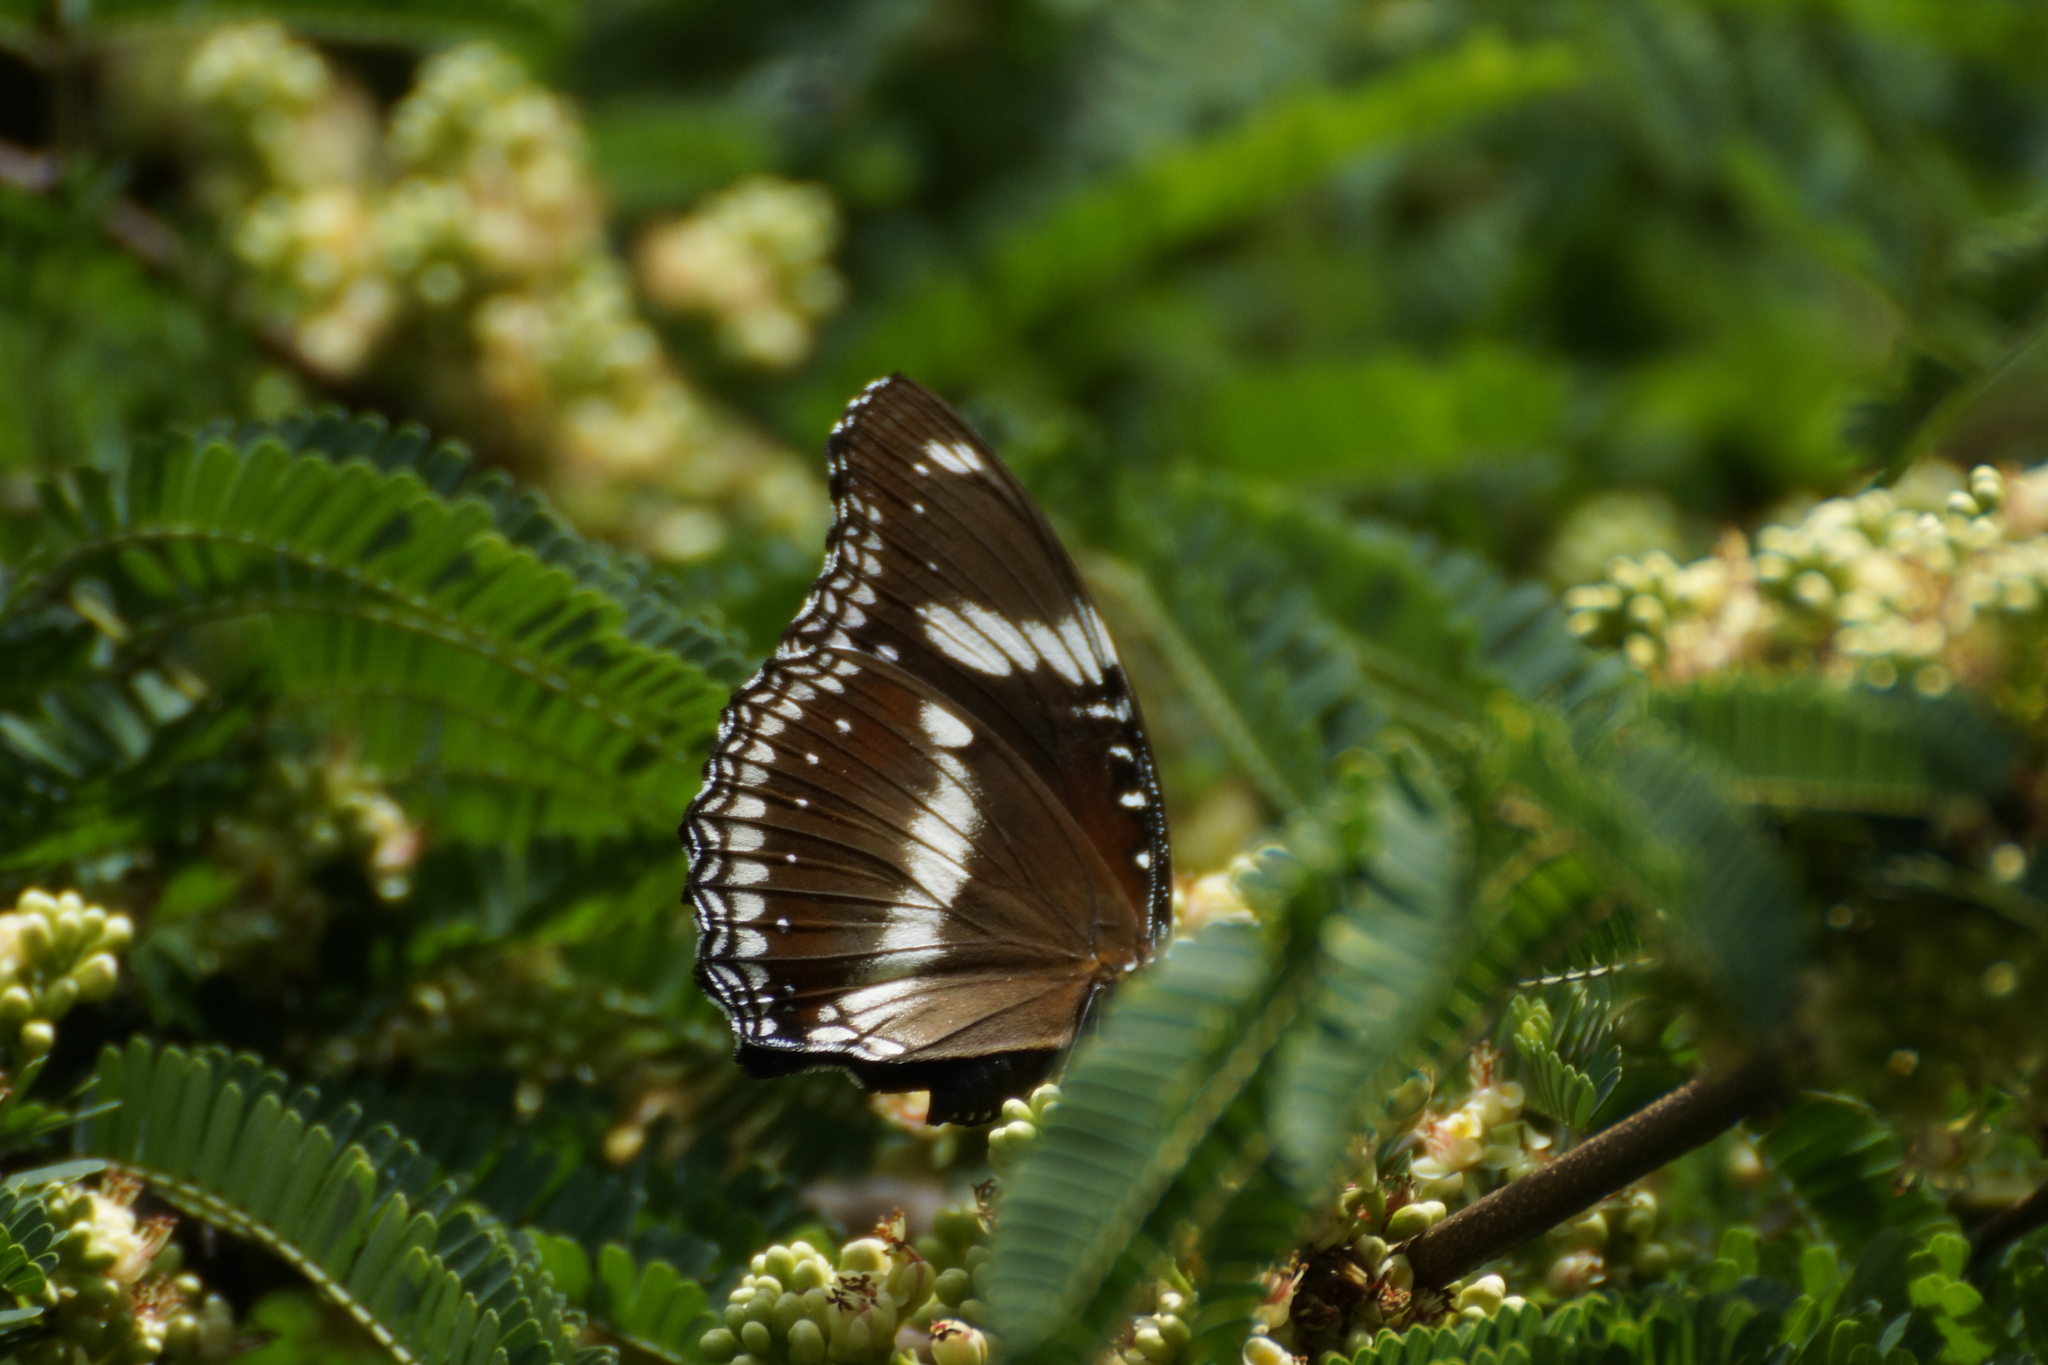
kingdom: Animalia
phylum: Arthropoda
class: Insecta
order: Lepidoptera
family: Nymphalidae
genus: Hypolimnas
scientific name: Hypolimnas bolina
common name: Great eggfly
